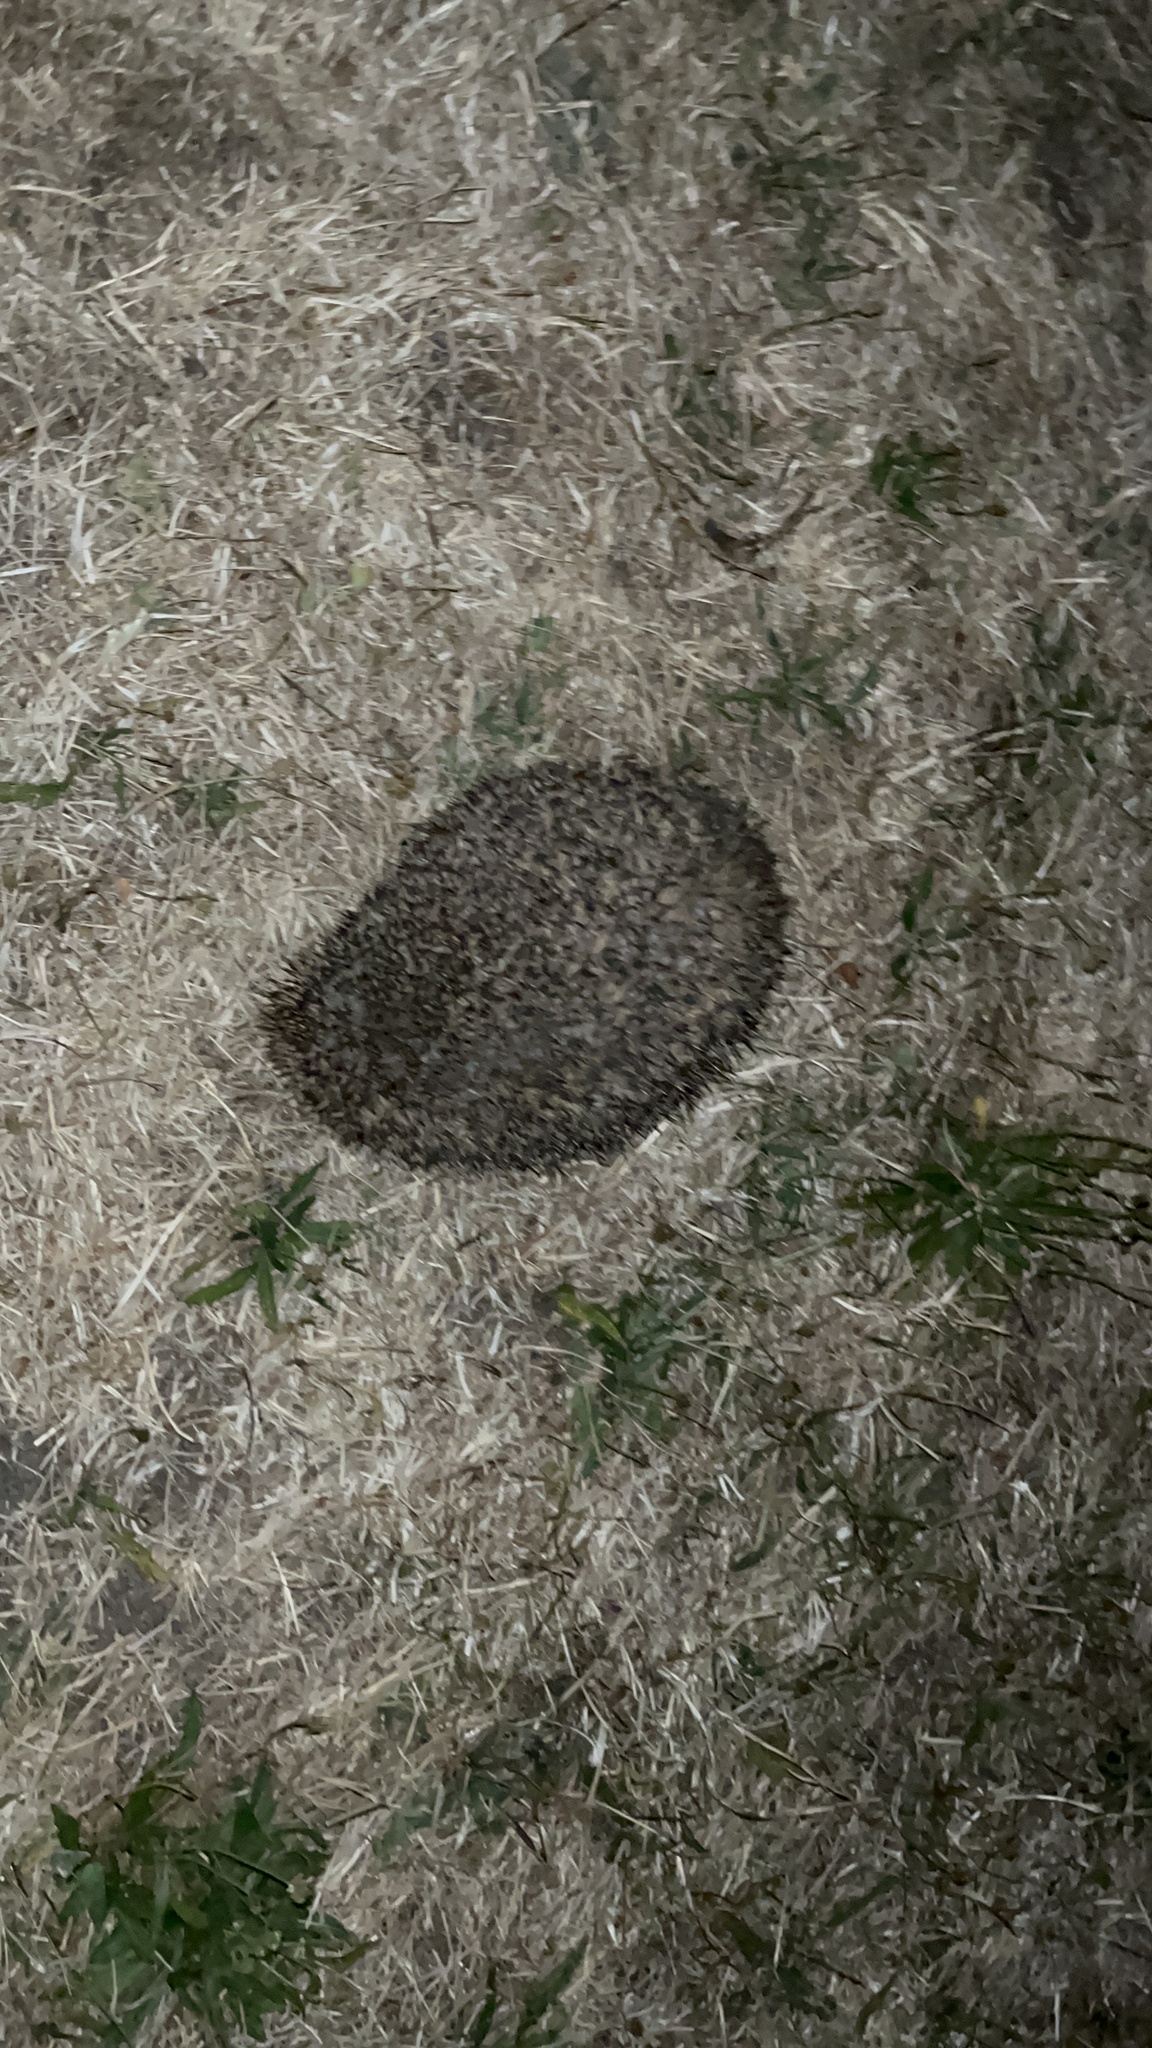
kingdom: Animalia
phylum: Chordata
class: Mammalia
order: Erinaceomorpha
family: Erinaceidae
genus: Erinaceus
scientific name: Erinaceus europaeus
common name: West european hedgehog
